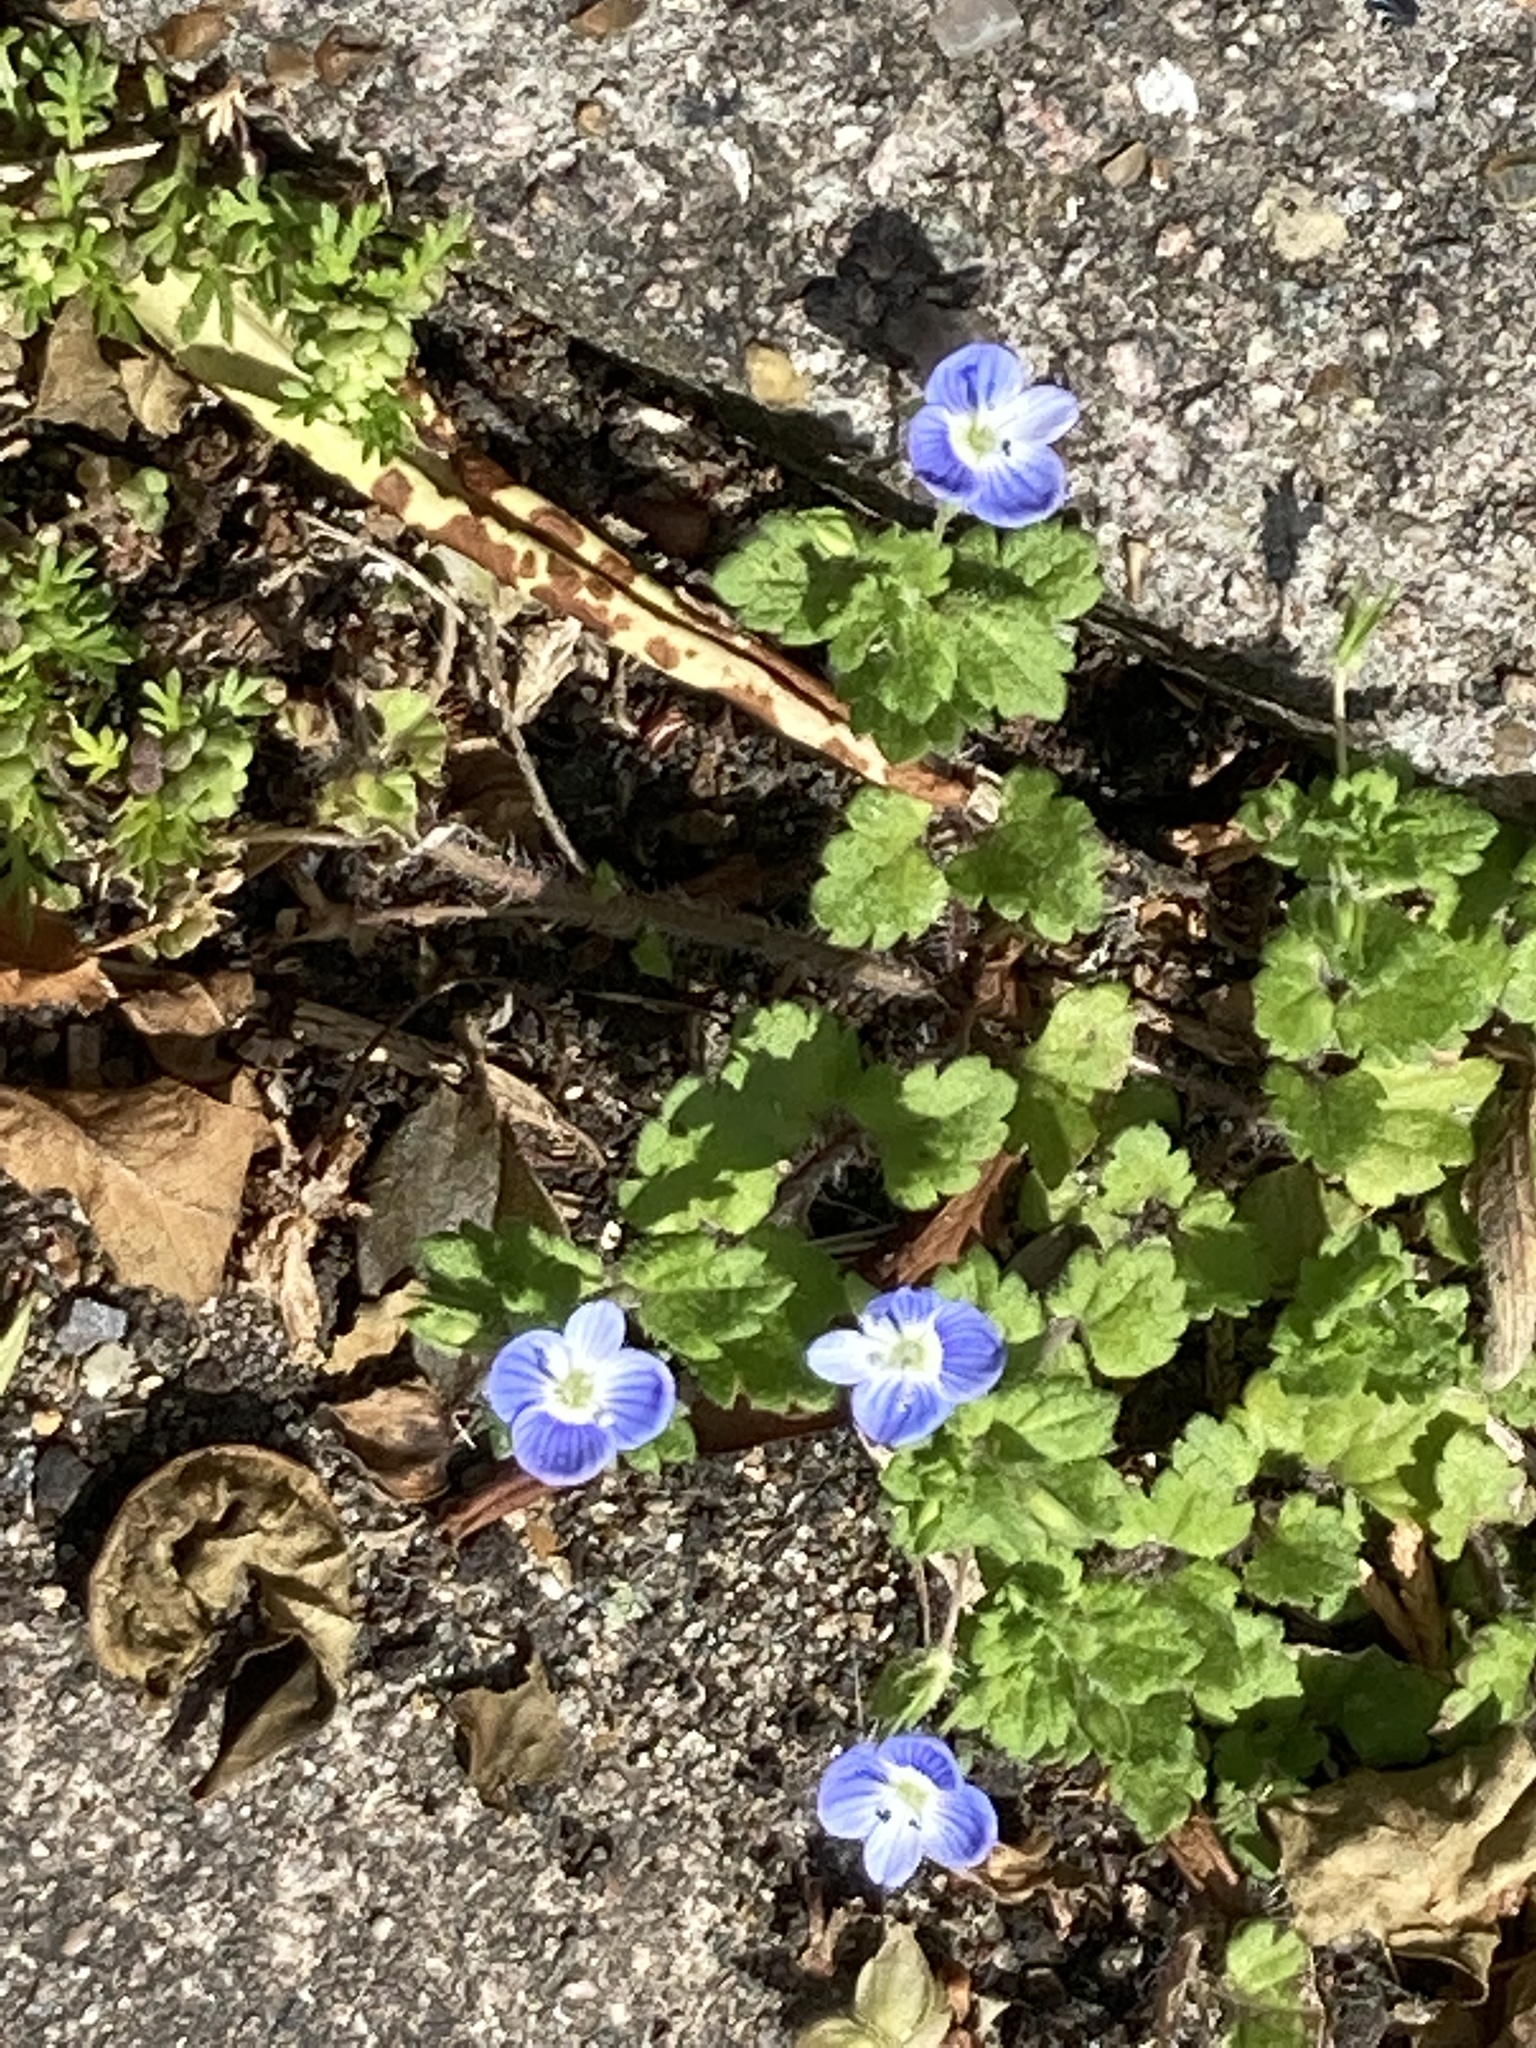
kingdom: Plantae
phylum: Tracheophyta
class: Magnoliopsida
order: Lamiales
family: Plantaginaceae
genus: Veronica
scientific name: Veronica persica
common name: Common field-speedwell
